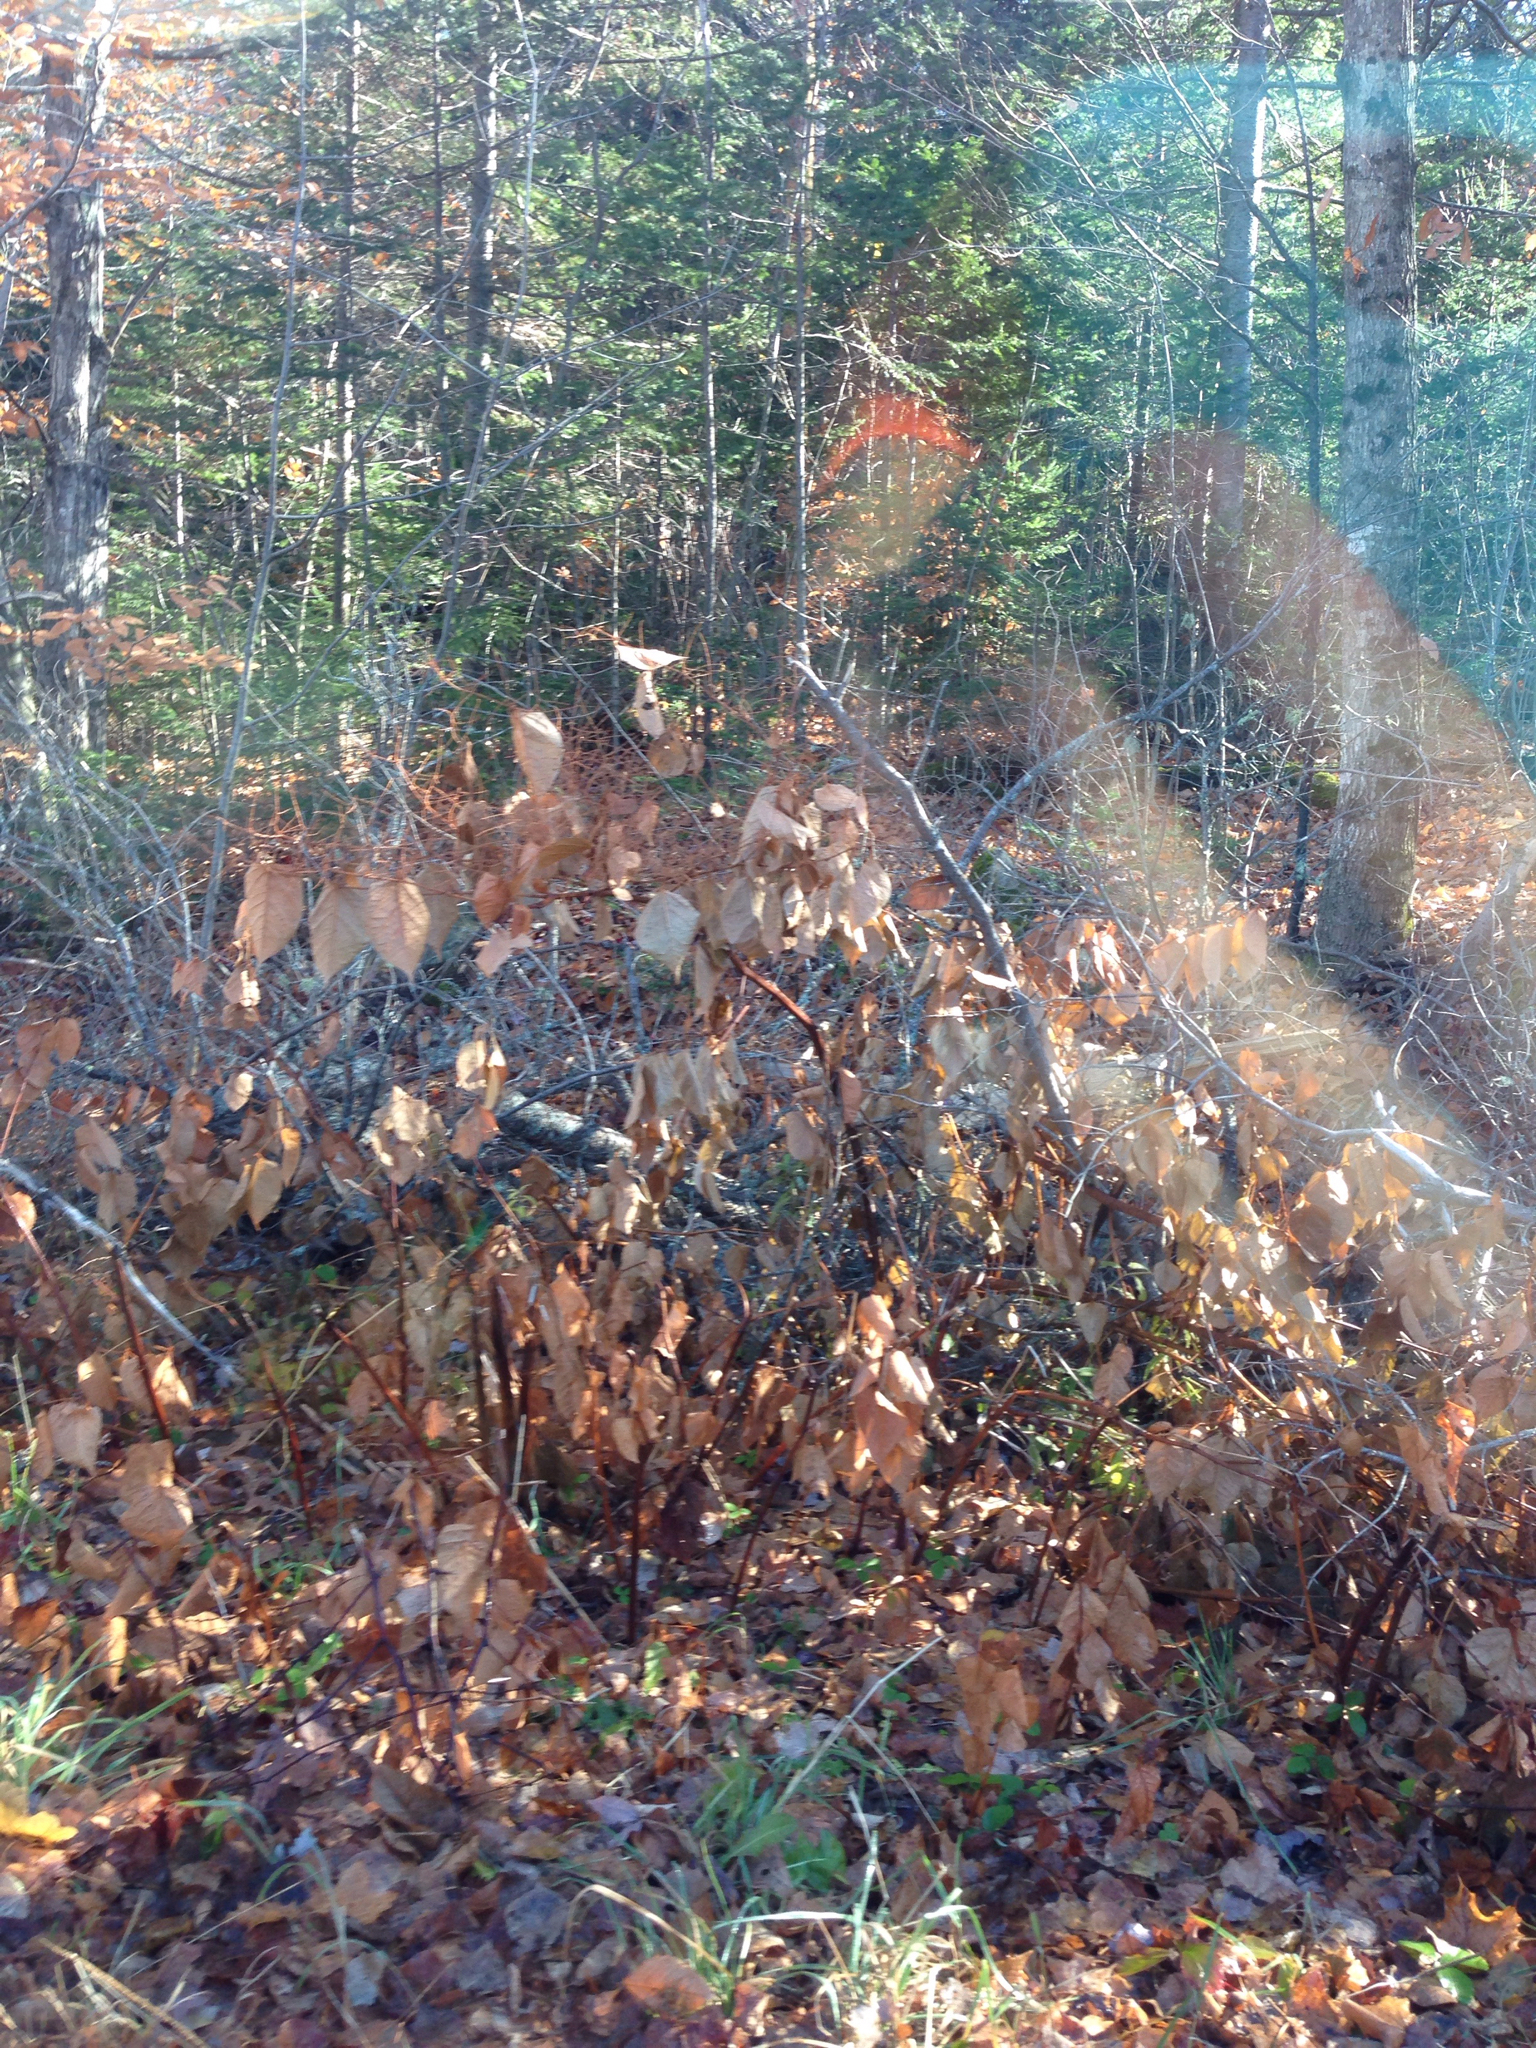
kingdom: Plantae
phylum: Tracheophyta
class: Magnoliopsida
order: Caryophyllales
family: Polygonaceae
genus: Reynoutria
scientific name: Reynoutria japonica
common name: Japanese knotweed
